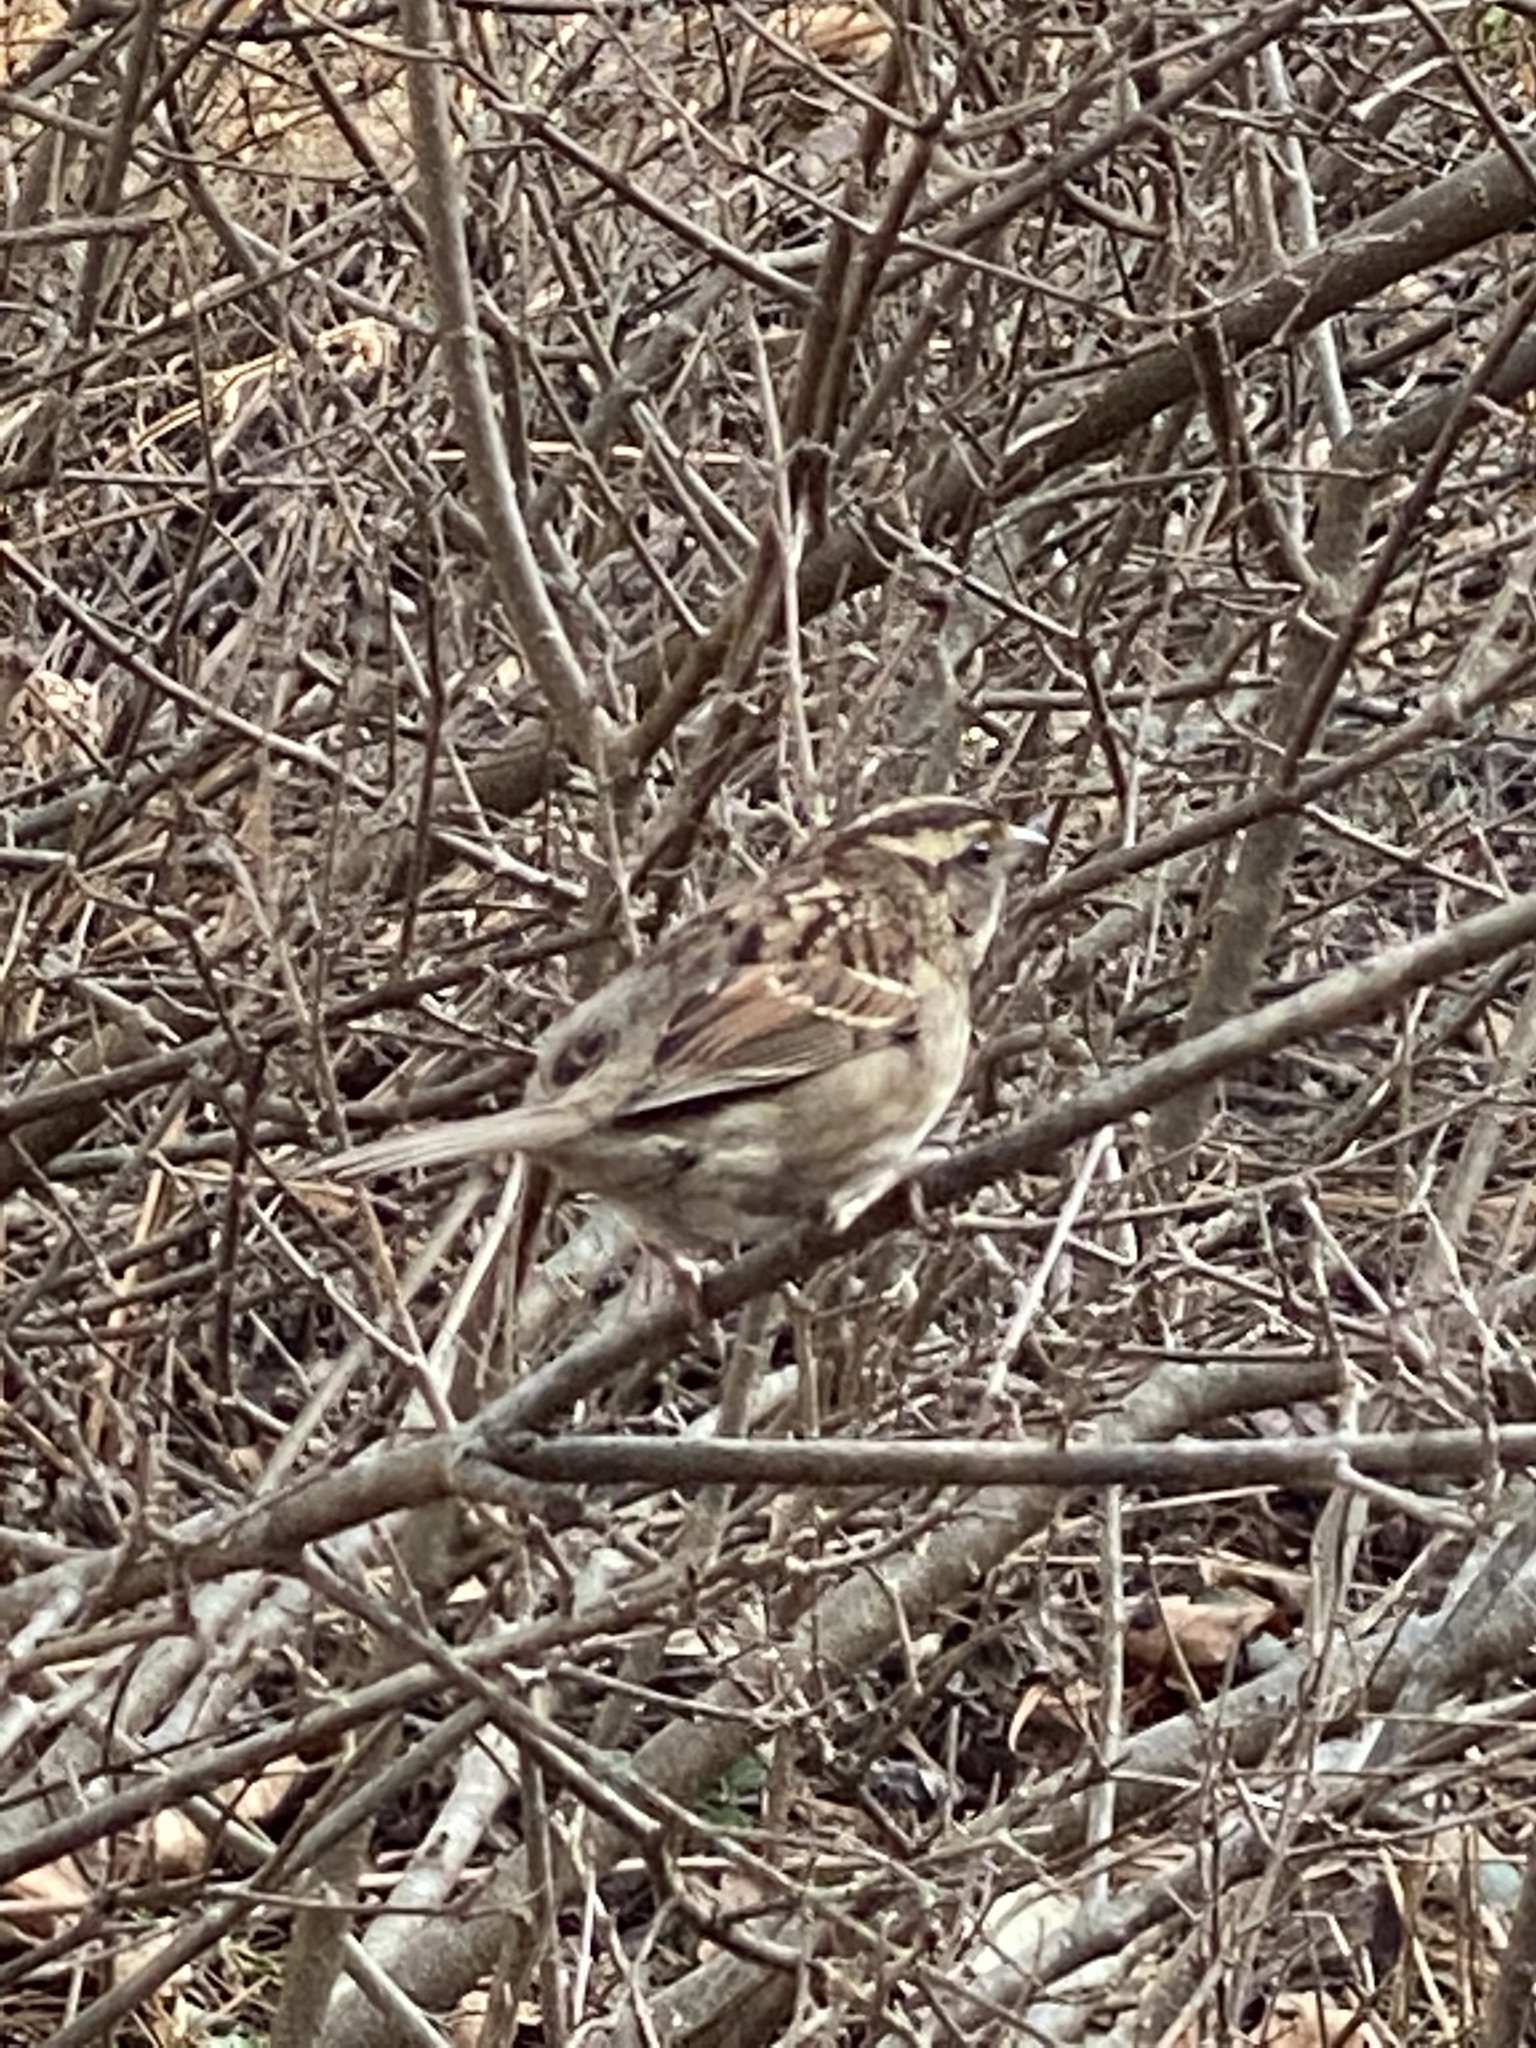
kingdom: Animalia
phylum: Chordata
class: Aves
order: Passeriformes
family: Passerellidae
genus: Zonotrichia
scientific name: Zonotrichia albicollis
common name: White-throated sparrow
